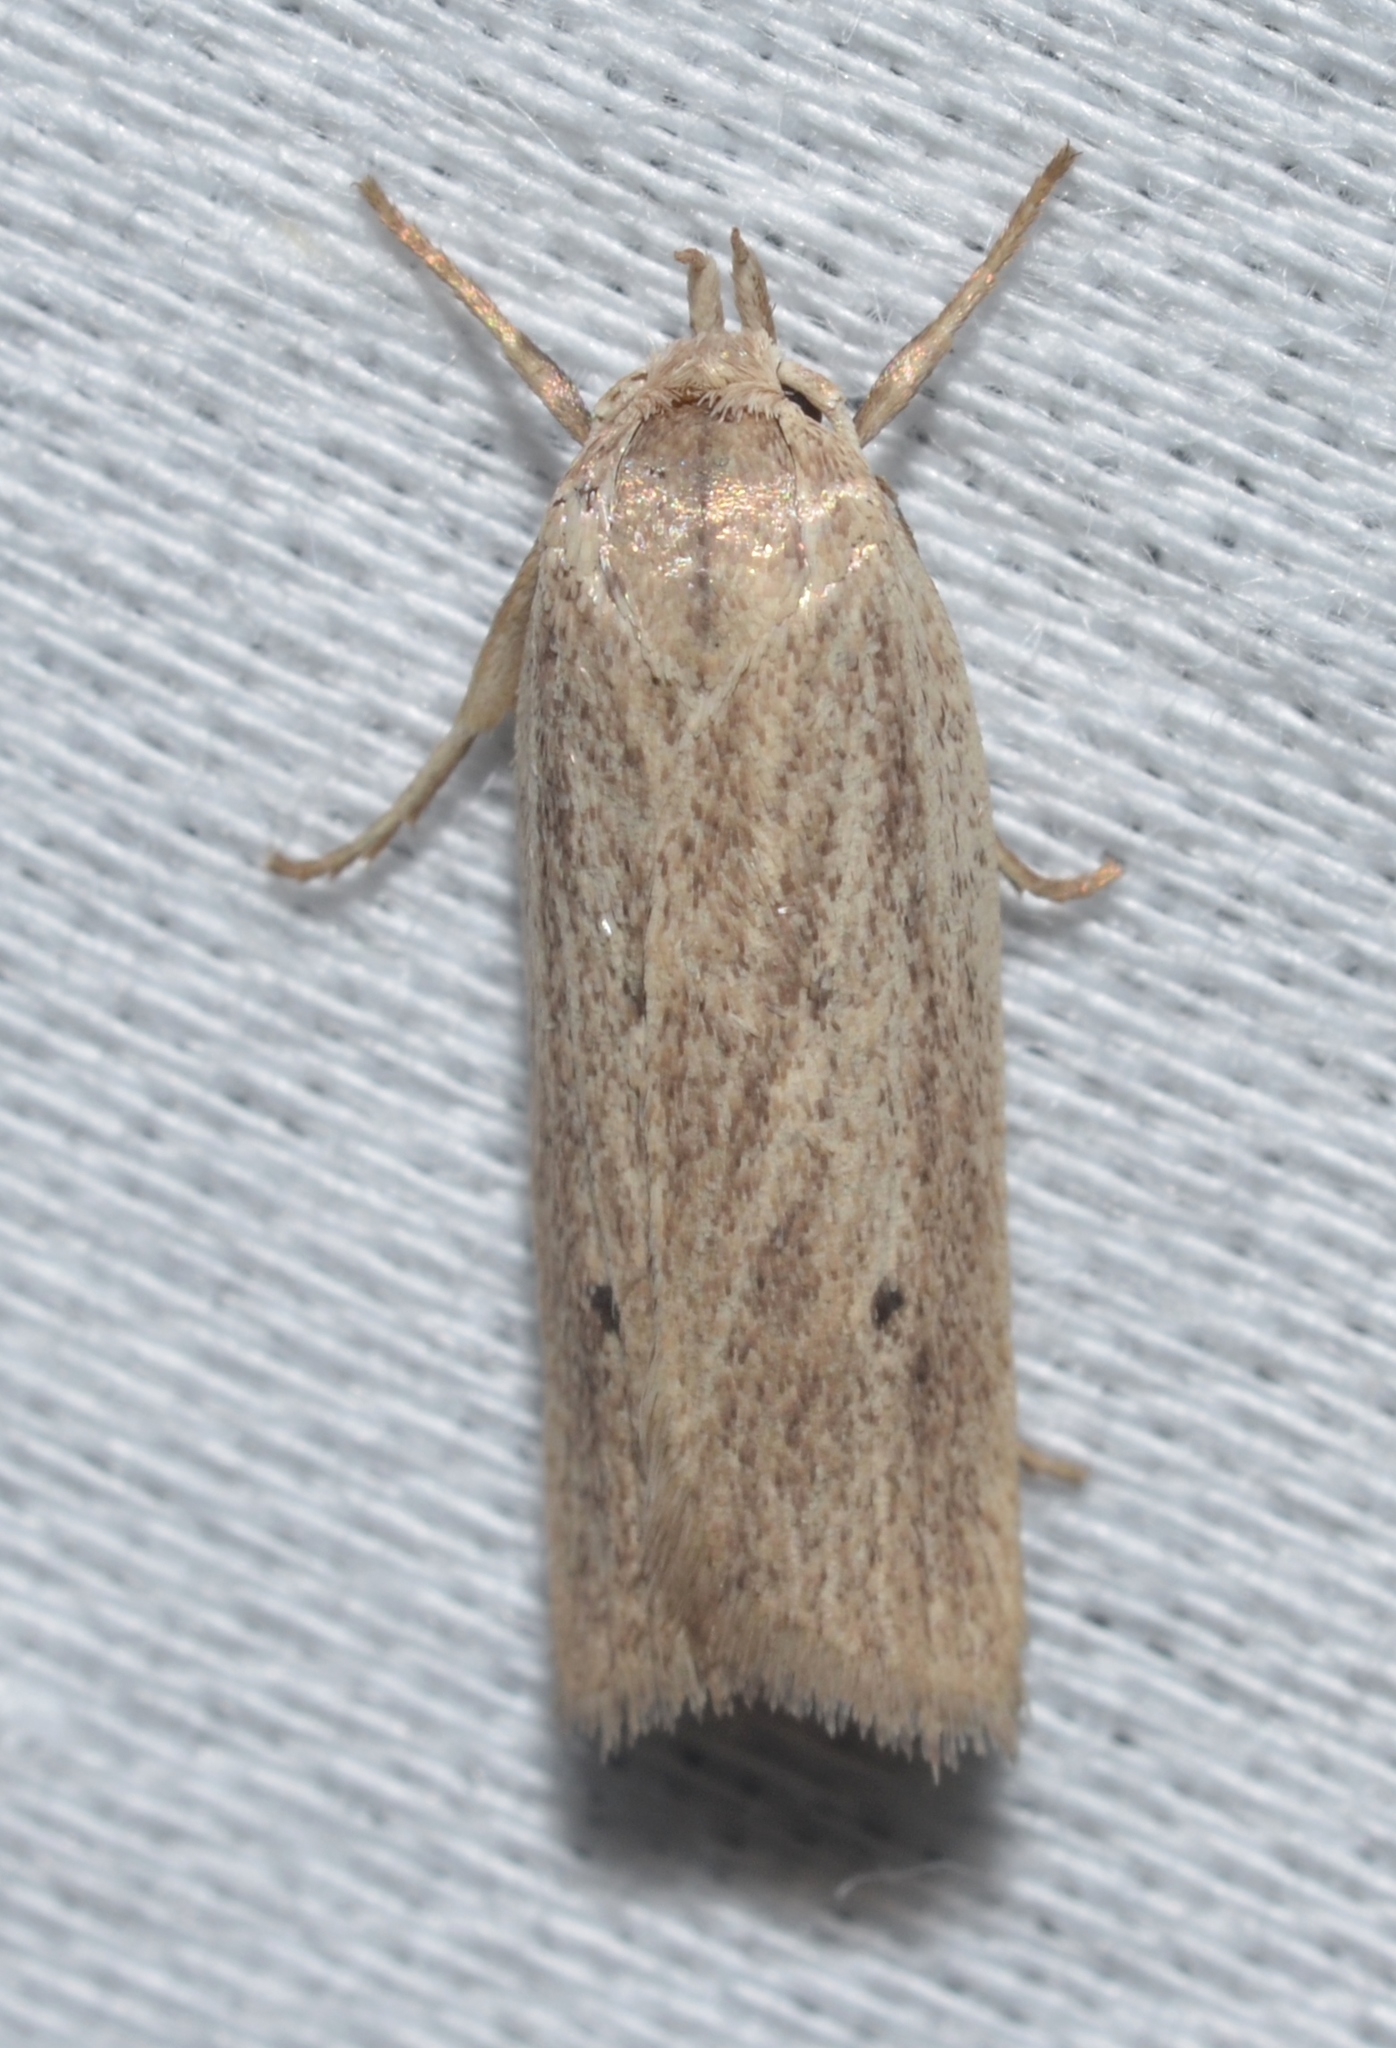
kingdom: Animalia
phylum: Arthropoda
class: Insecta
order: Lepidoptera
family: Depressariidae
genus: Gonioterma
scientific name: Gonioterma mistrella
